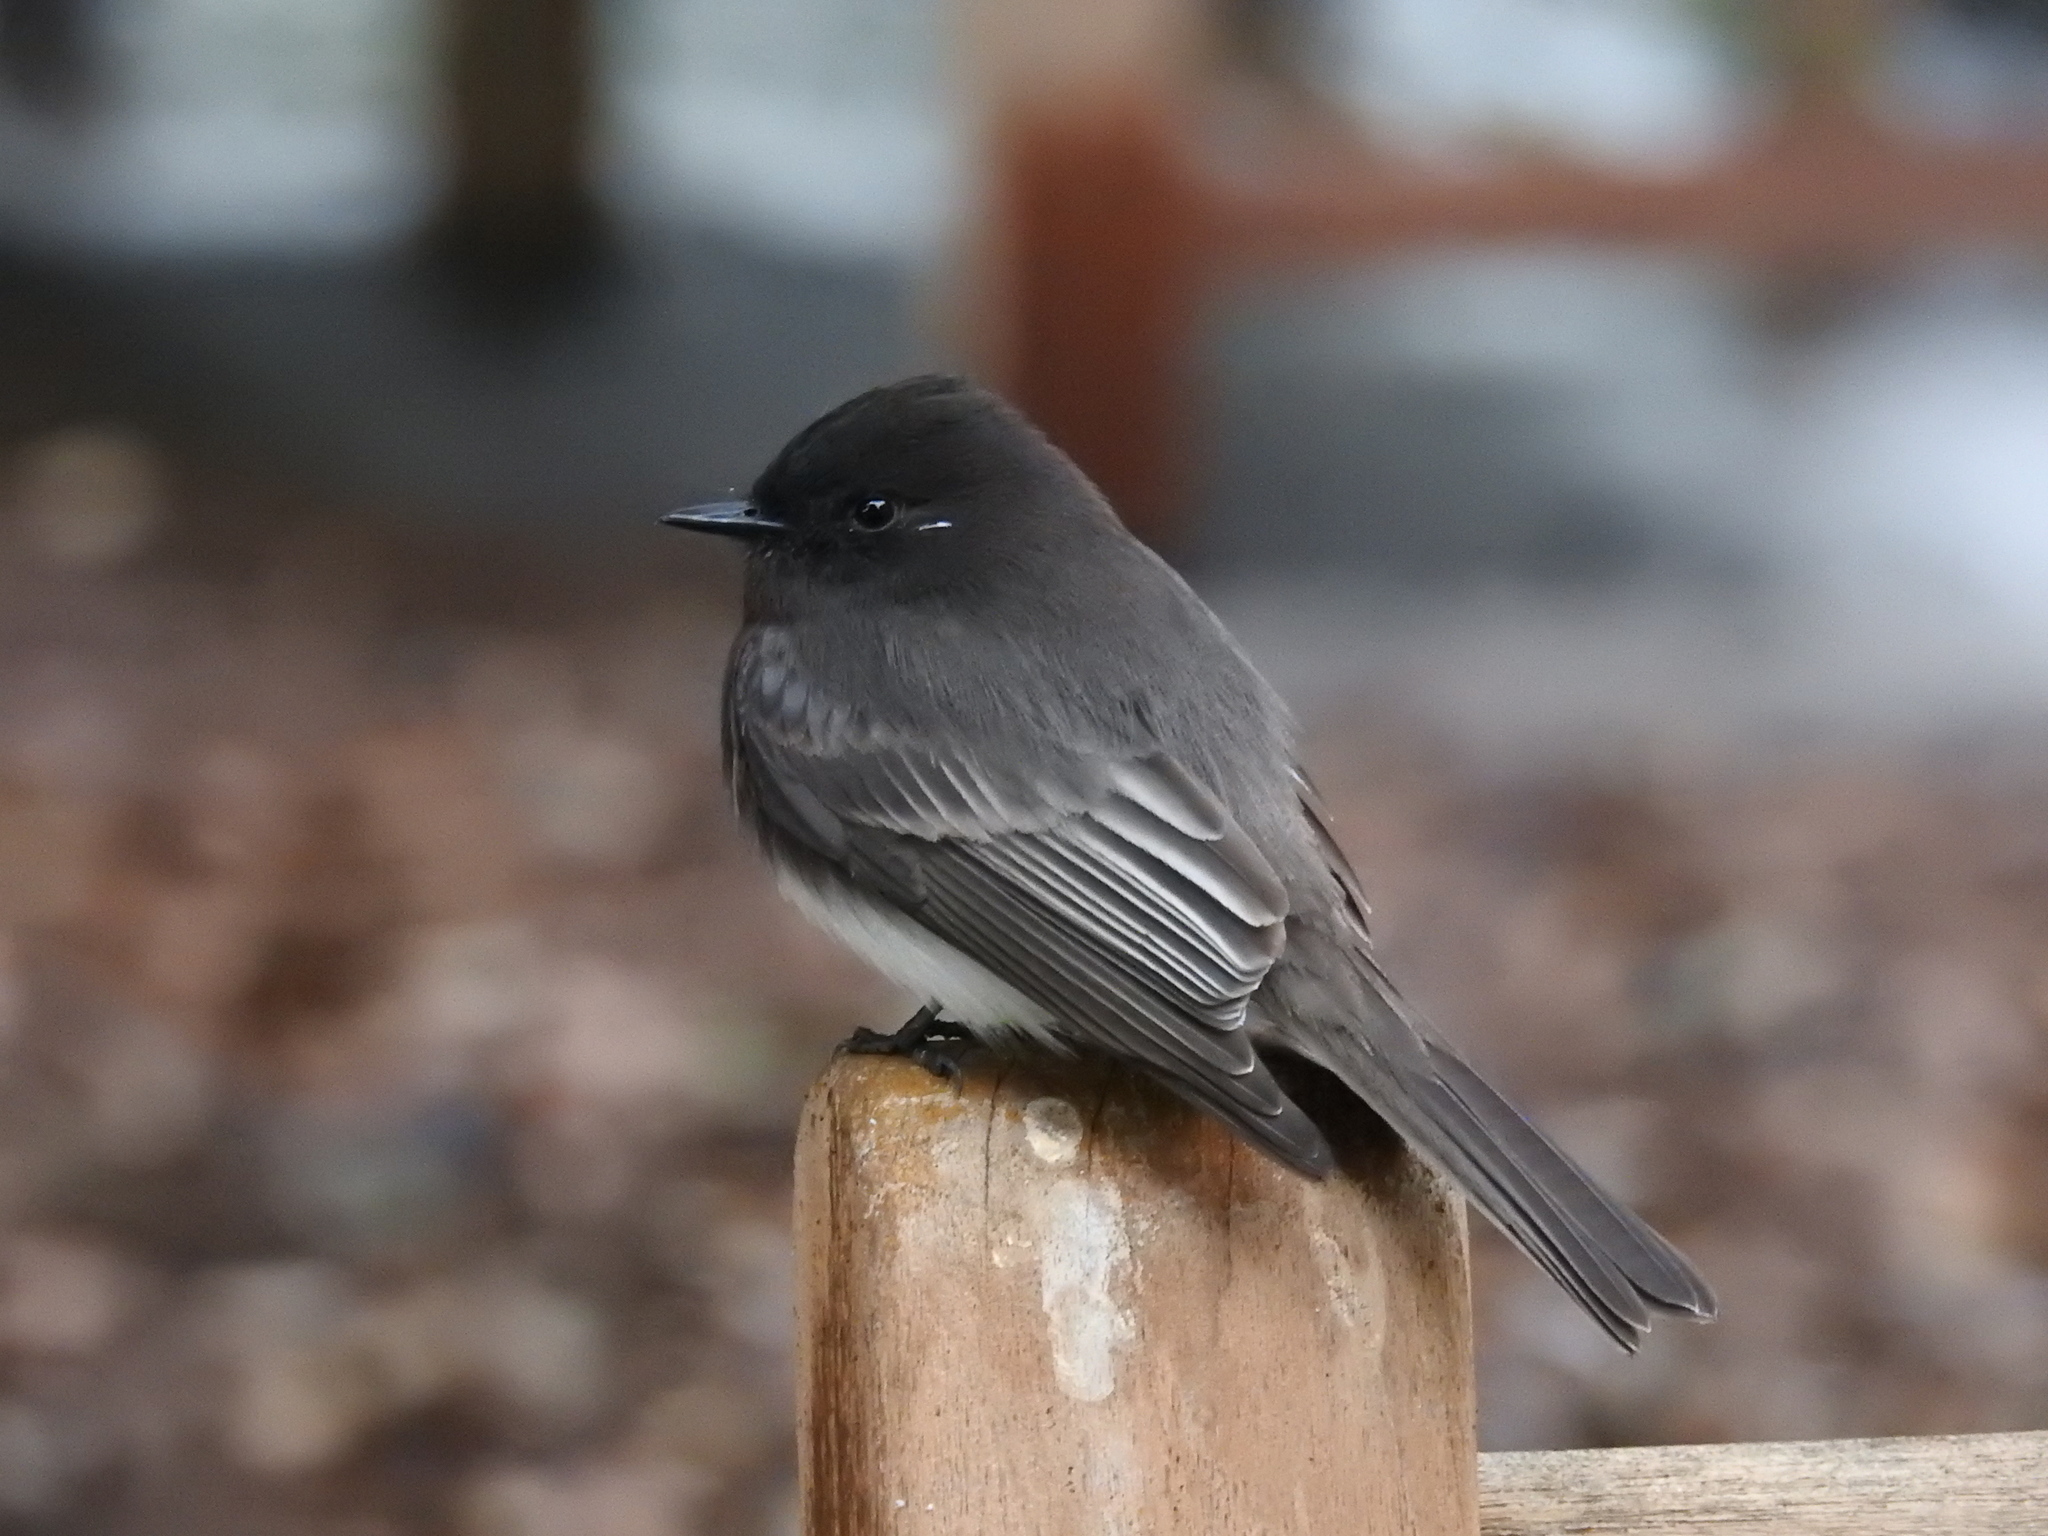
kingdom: Animalia
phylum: Chordata
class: Aves
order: Passeriformes
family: Tyrannidae
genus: Sayornis
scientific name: Sayornis nigricans
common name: Black phoebe
